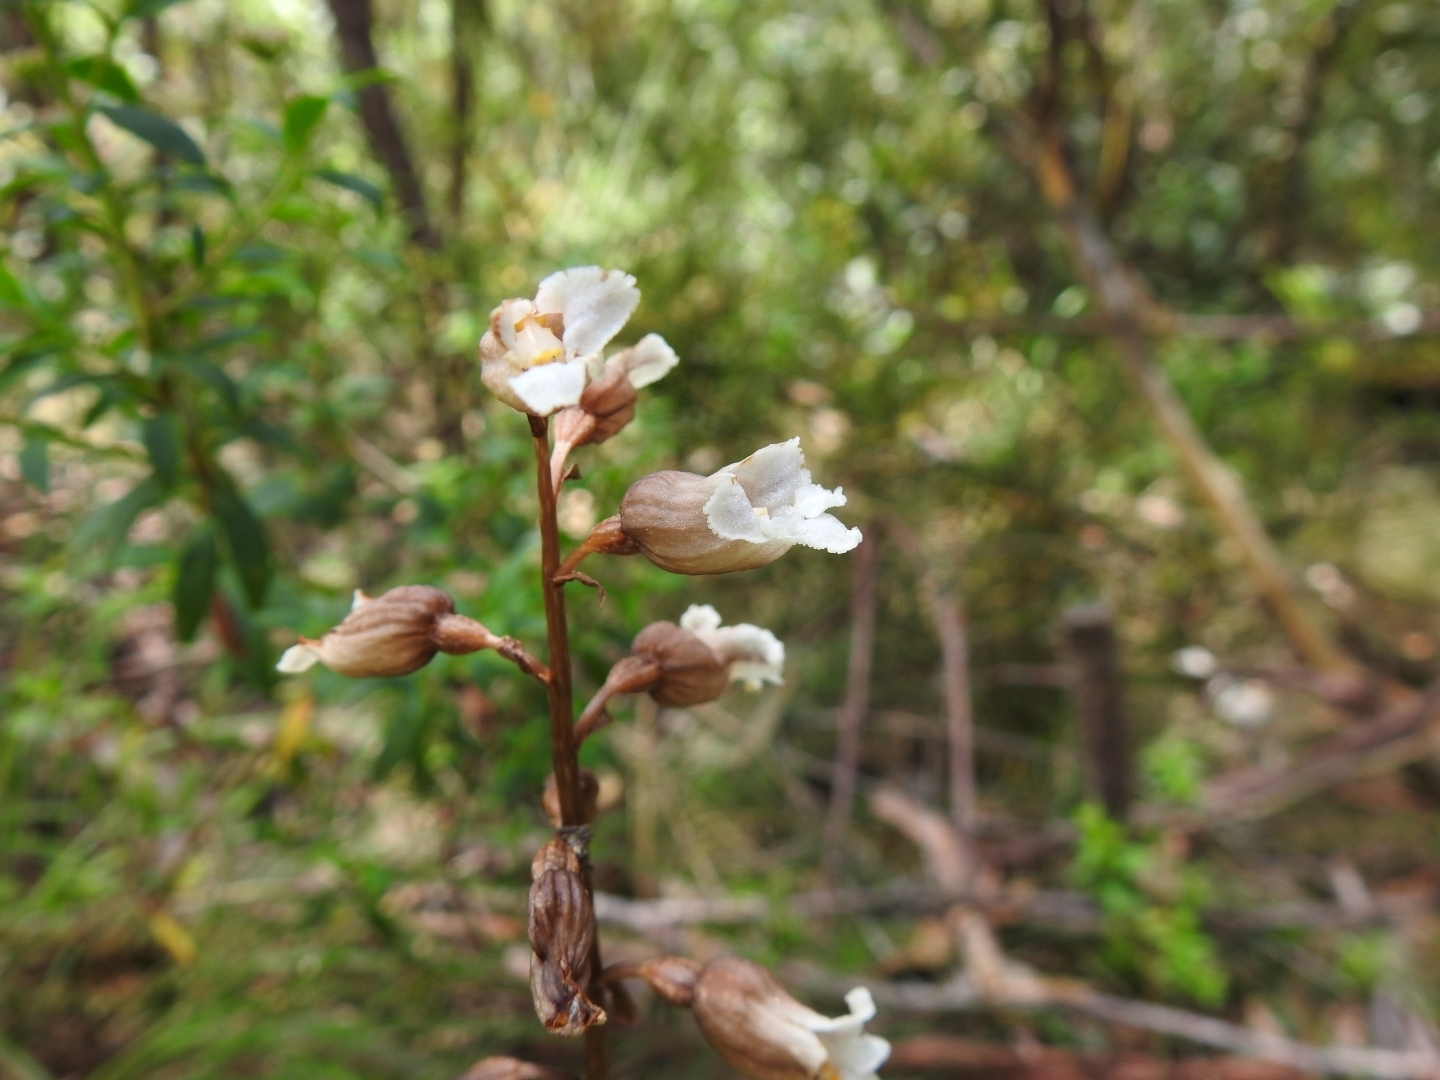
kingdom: Plantae
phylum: Tracheophyta
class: Liliopsida
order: Asparagales
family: Orchidaceae
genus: Gastrodia
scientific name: Gastrodia sesamoides
